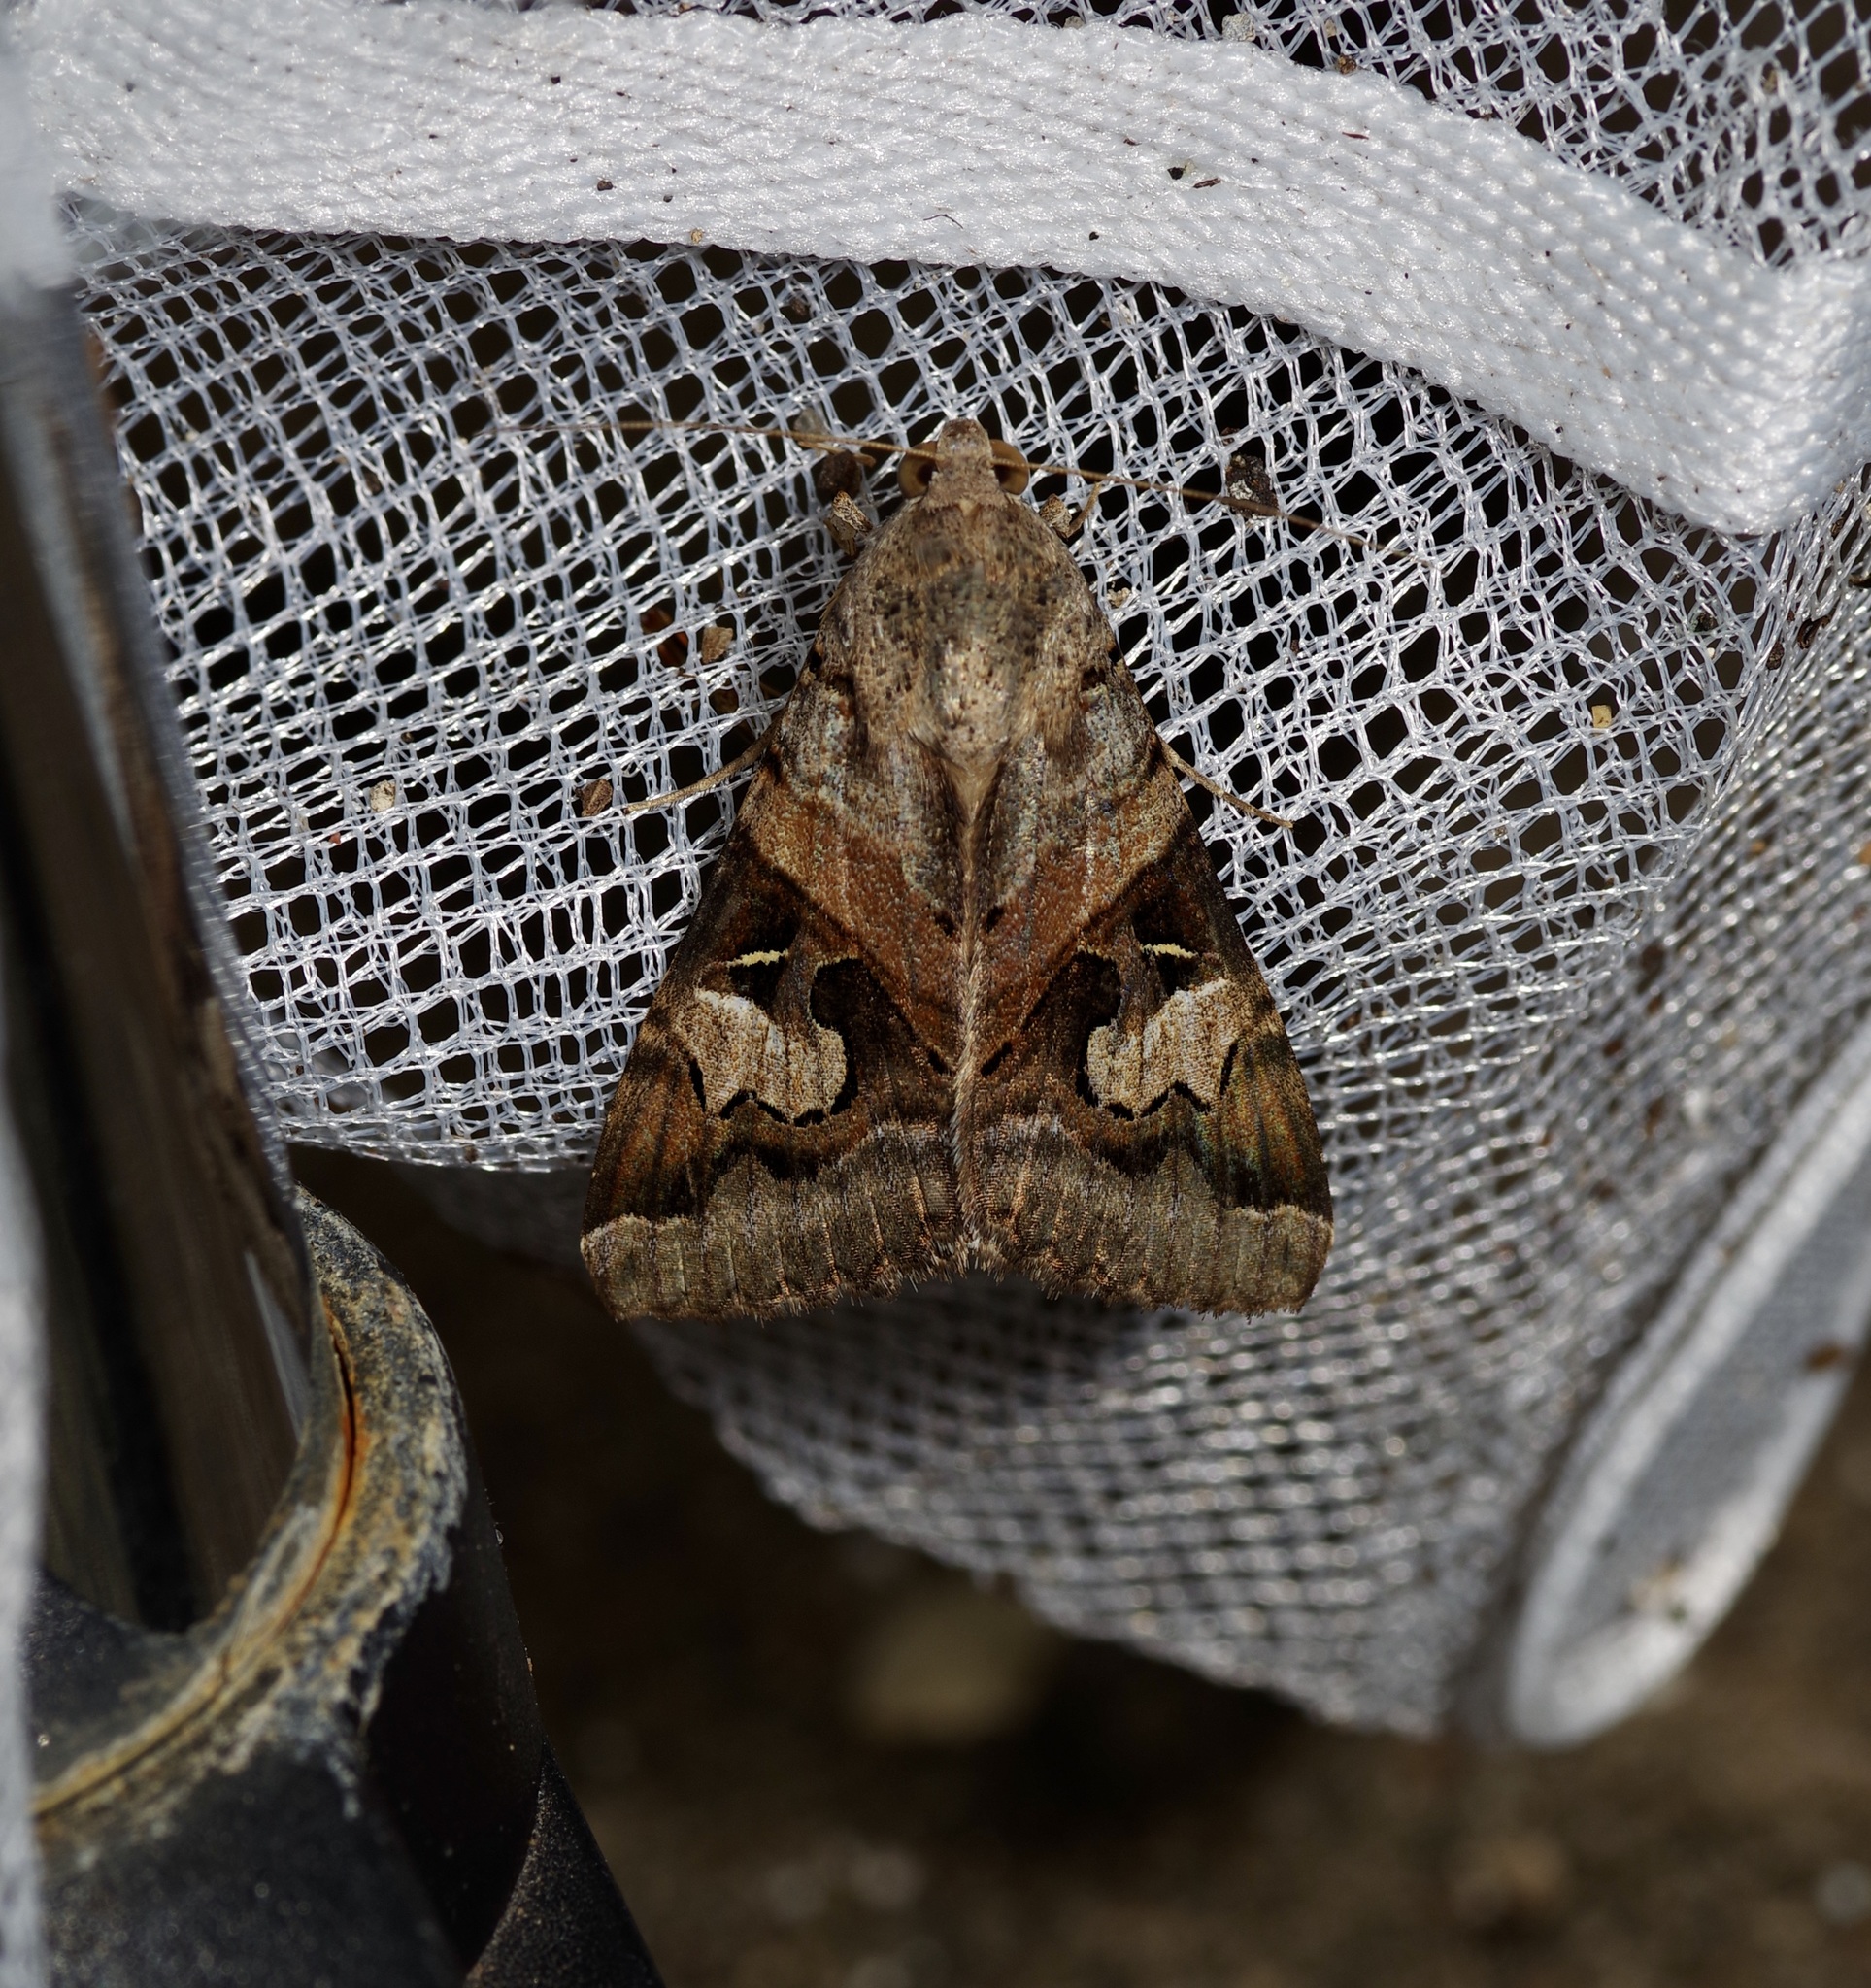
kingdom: Animalia
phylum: Arthropoda
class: Insecta
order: Lepidoptera
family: Erebidae
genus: Melipotis
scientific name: Melipotis indomita
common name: Moth
